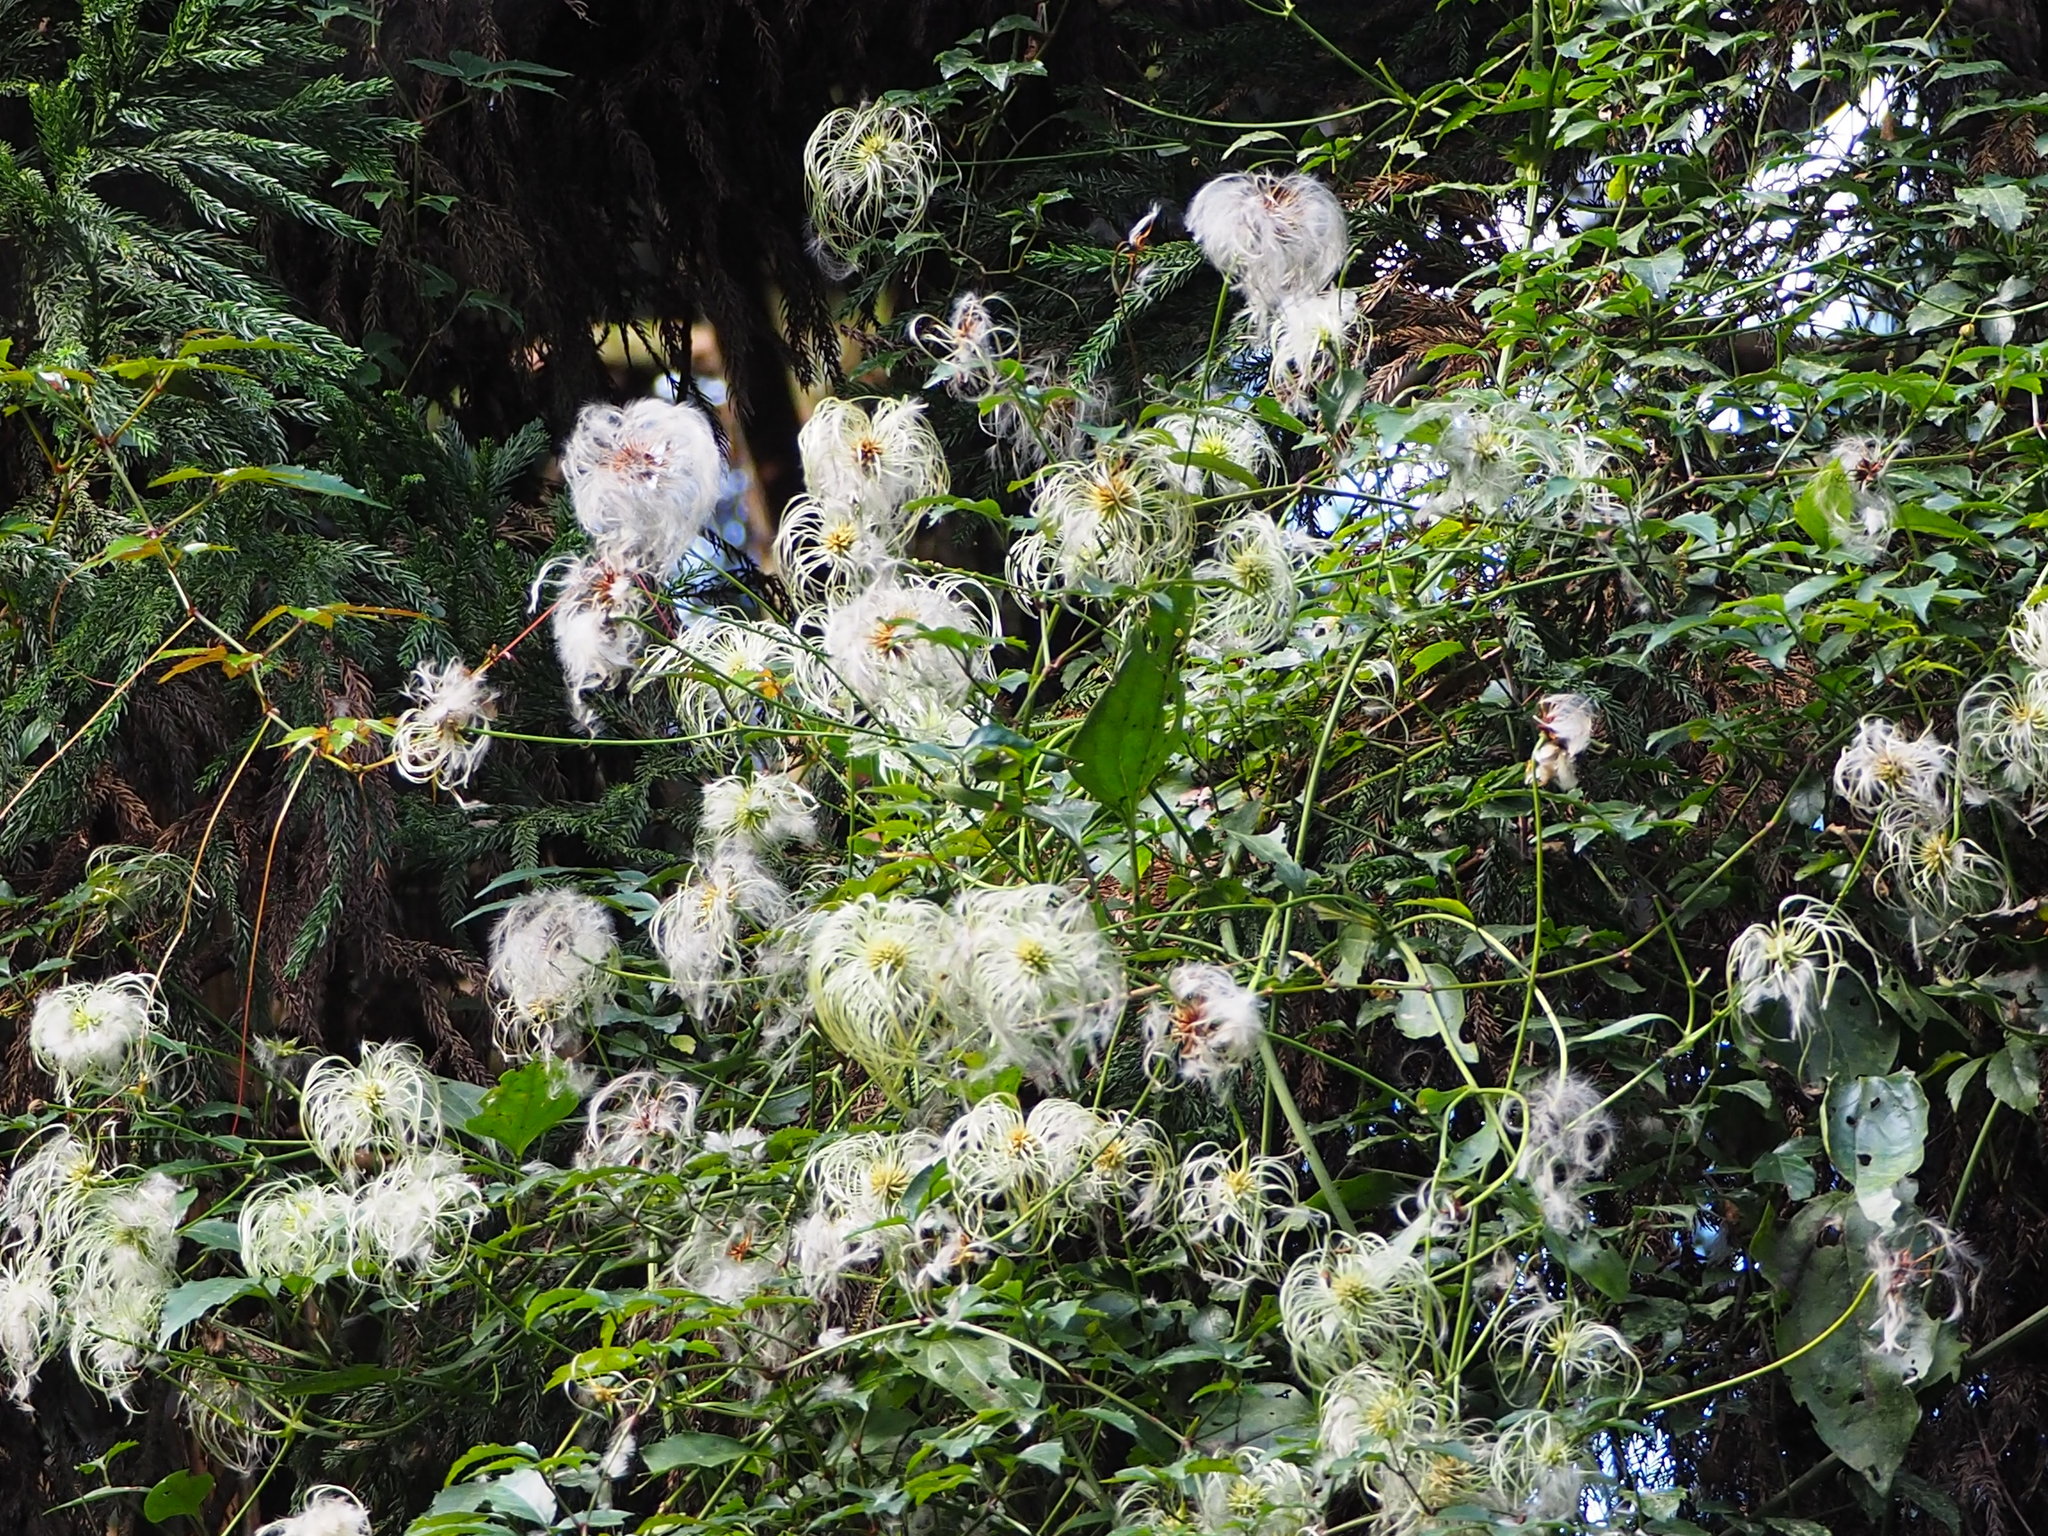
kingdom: Plantae
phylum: Tracheophyta
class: Magnoliopsida
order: Ranunculales
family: Ranunculaceae
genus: Clematis
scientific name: Clematis leschenaultiana
